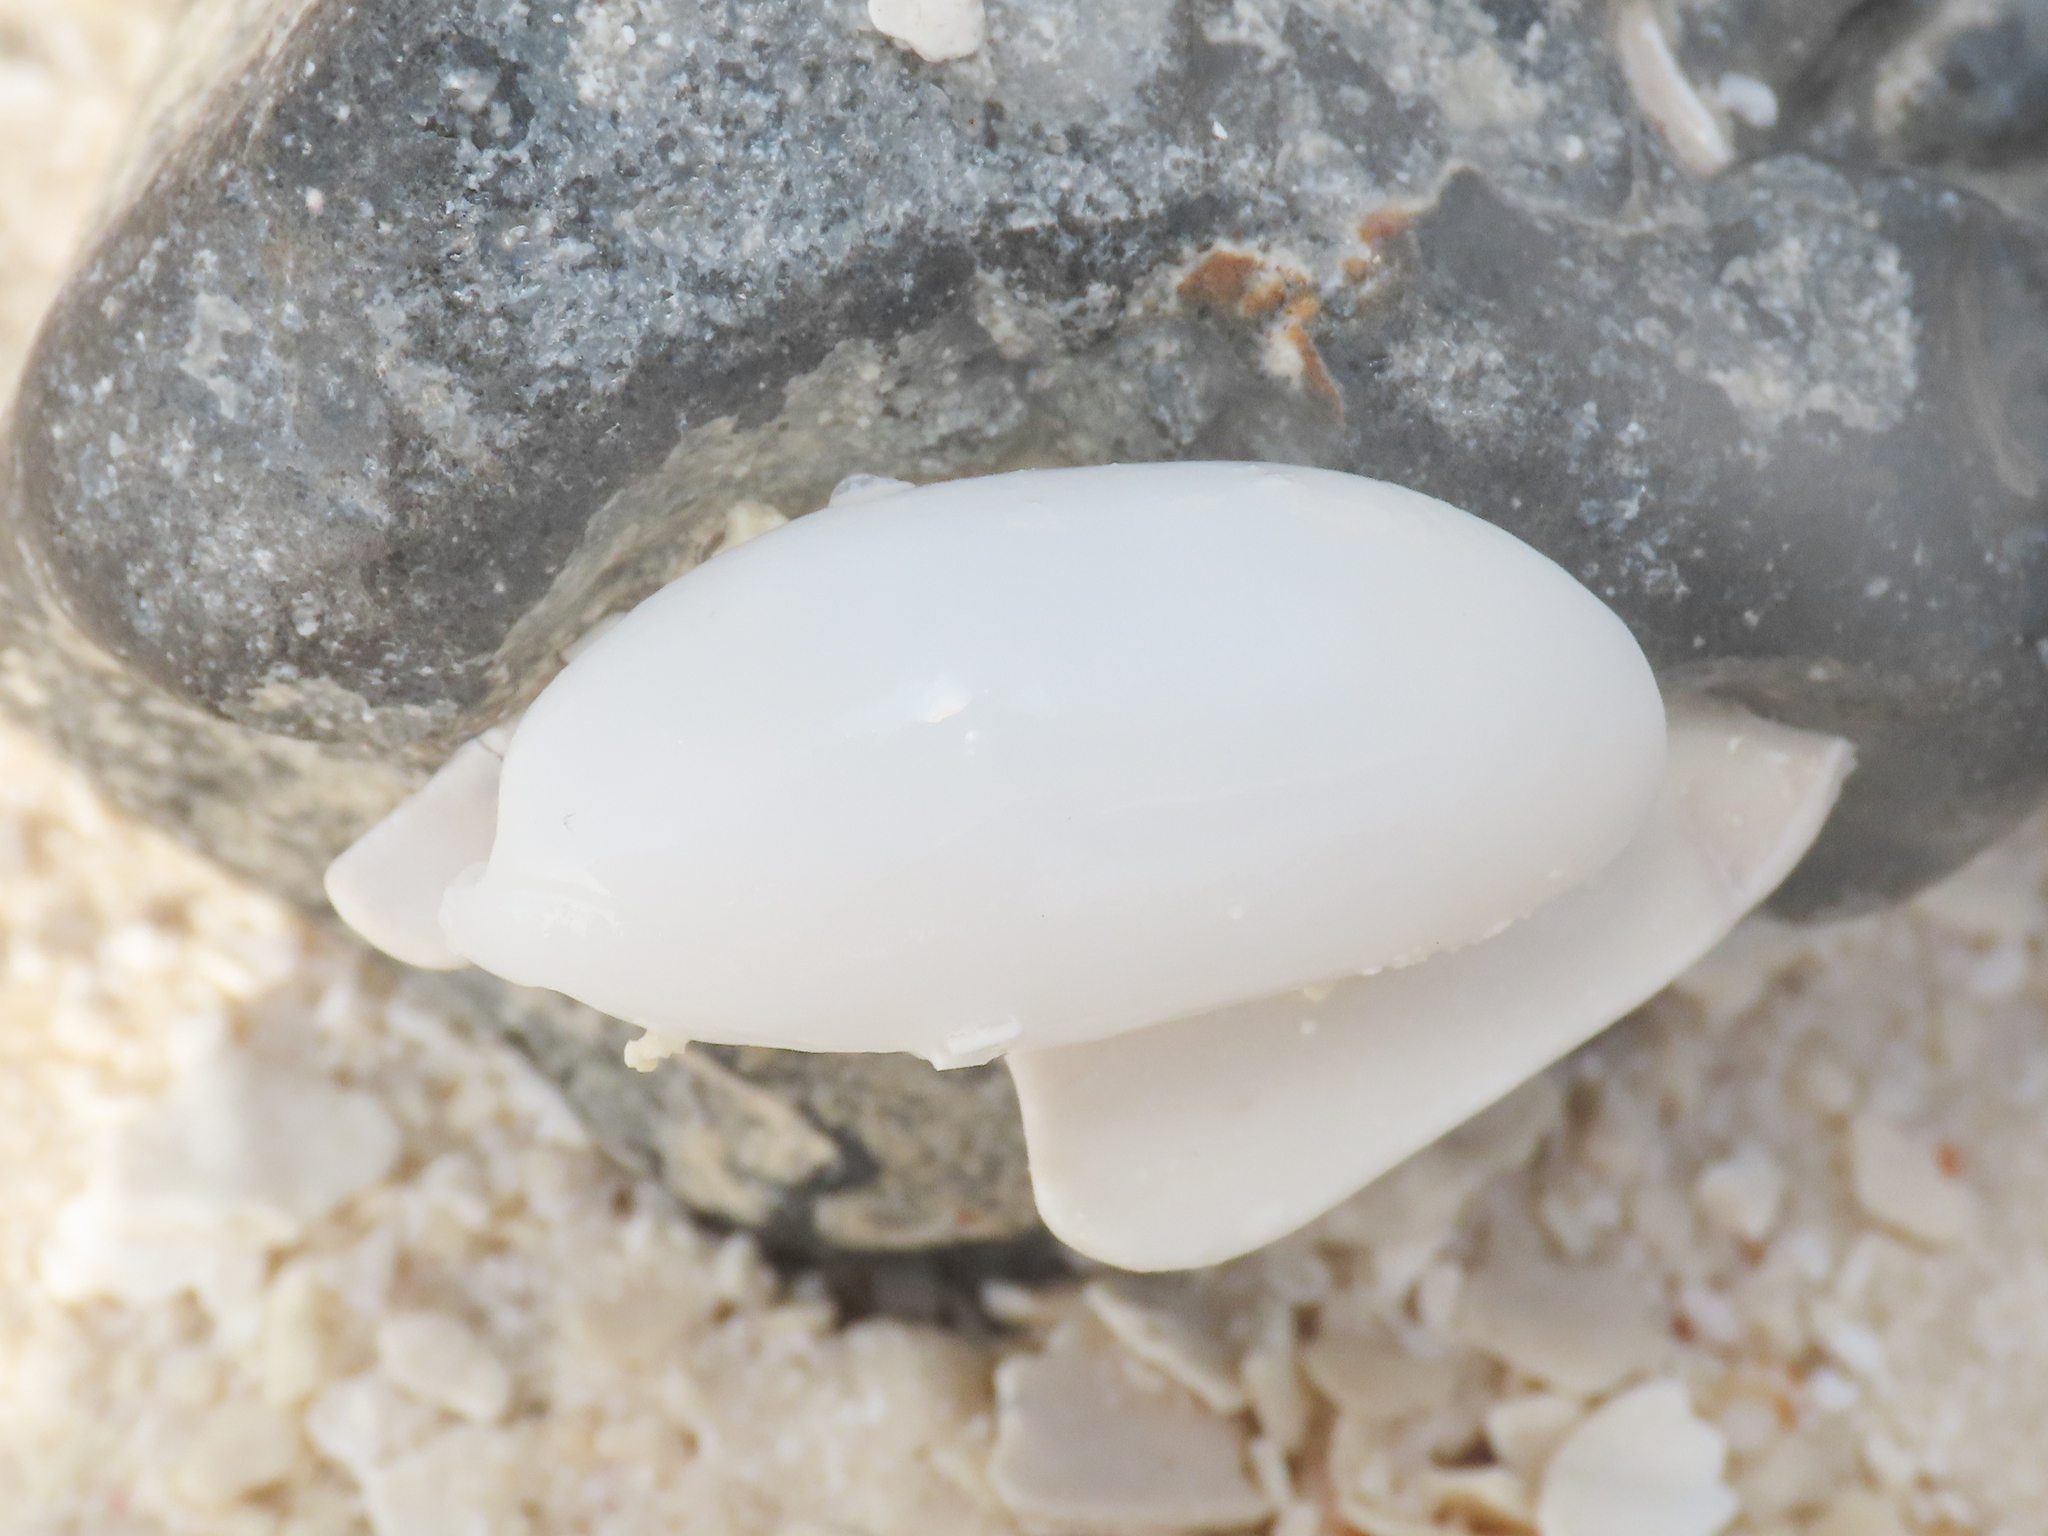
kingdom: Animalia
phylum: Mollusca
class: Gastropoda
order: Cephalaspidea
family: Haminoeidae
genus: Aliculastrum
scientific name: Aliculastrum cylindricum
